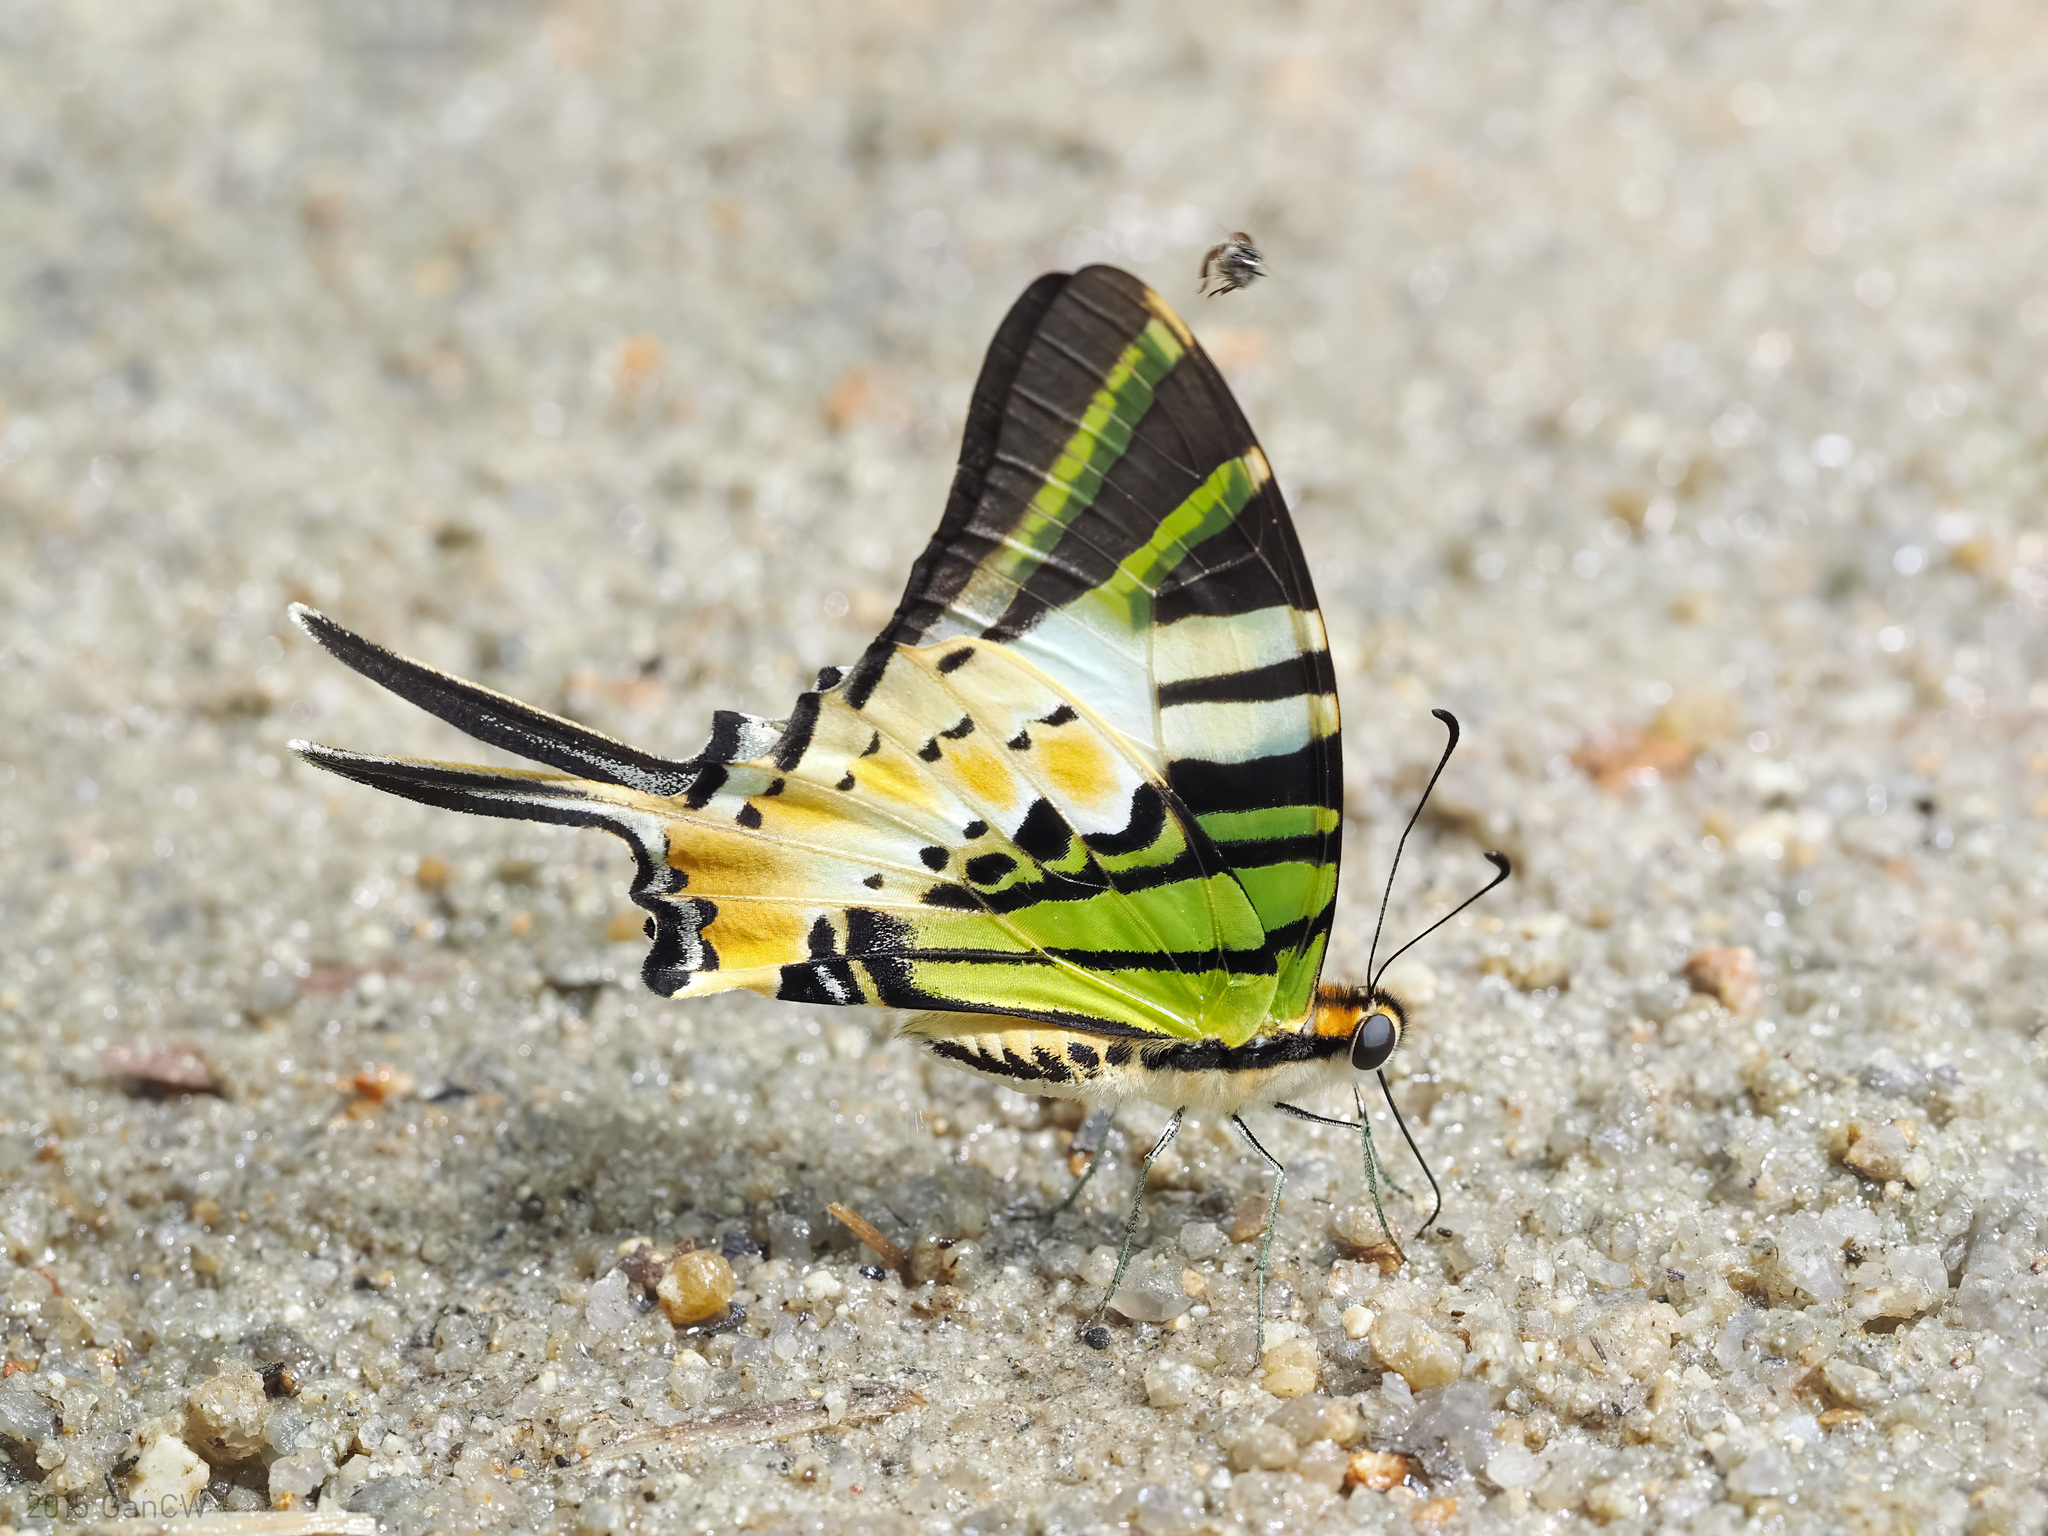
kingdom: Animalia
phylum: Arthropoda
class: Insecta
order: Lepidoptera
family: Papilionidae
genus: Graphium
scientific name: Graphium antiphates
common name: Fivebar swordtail
